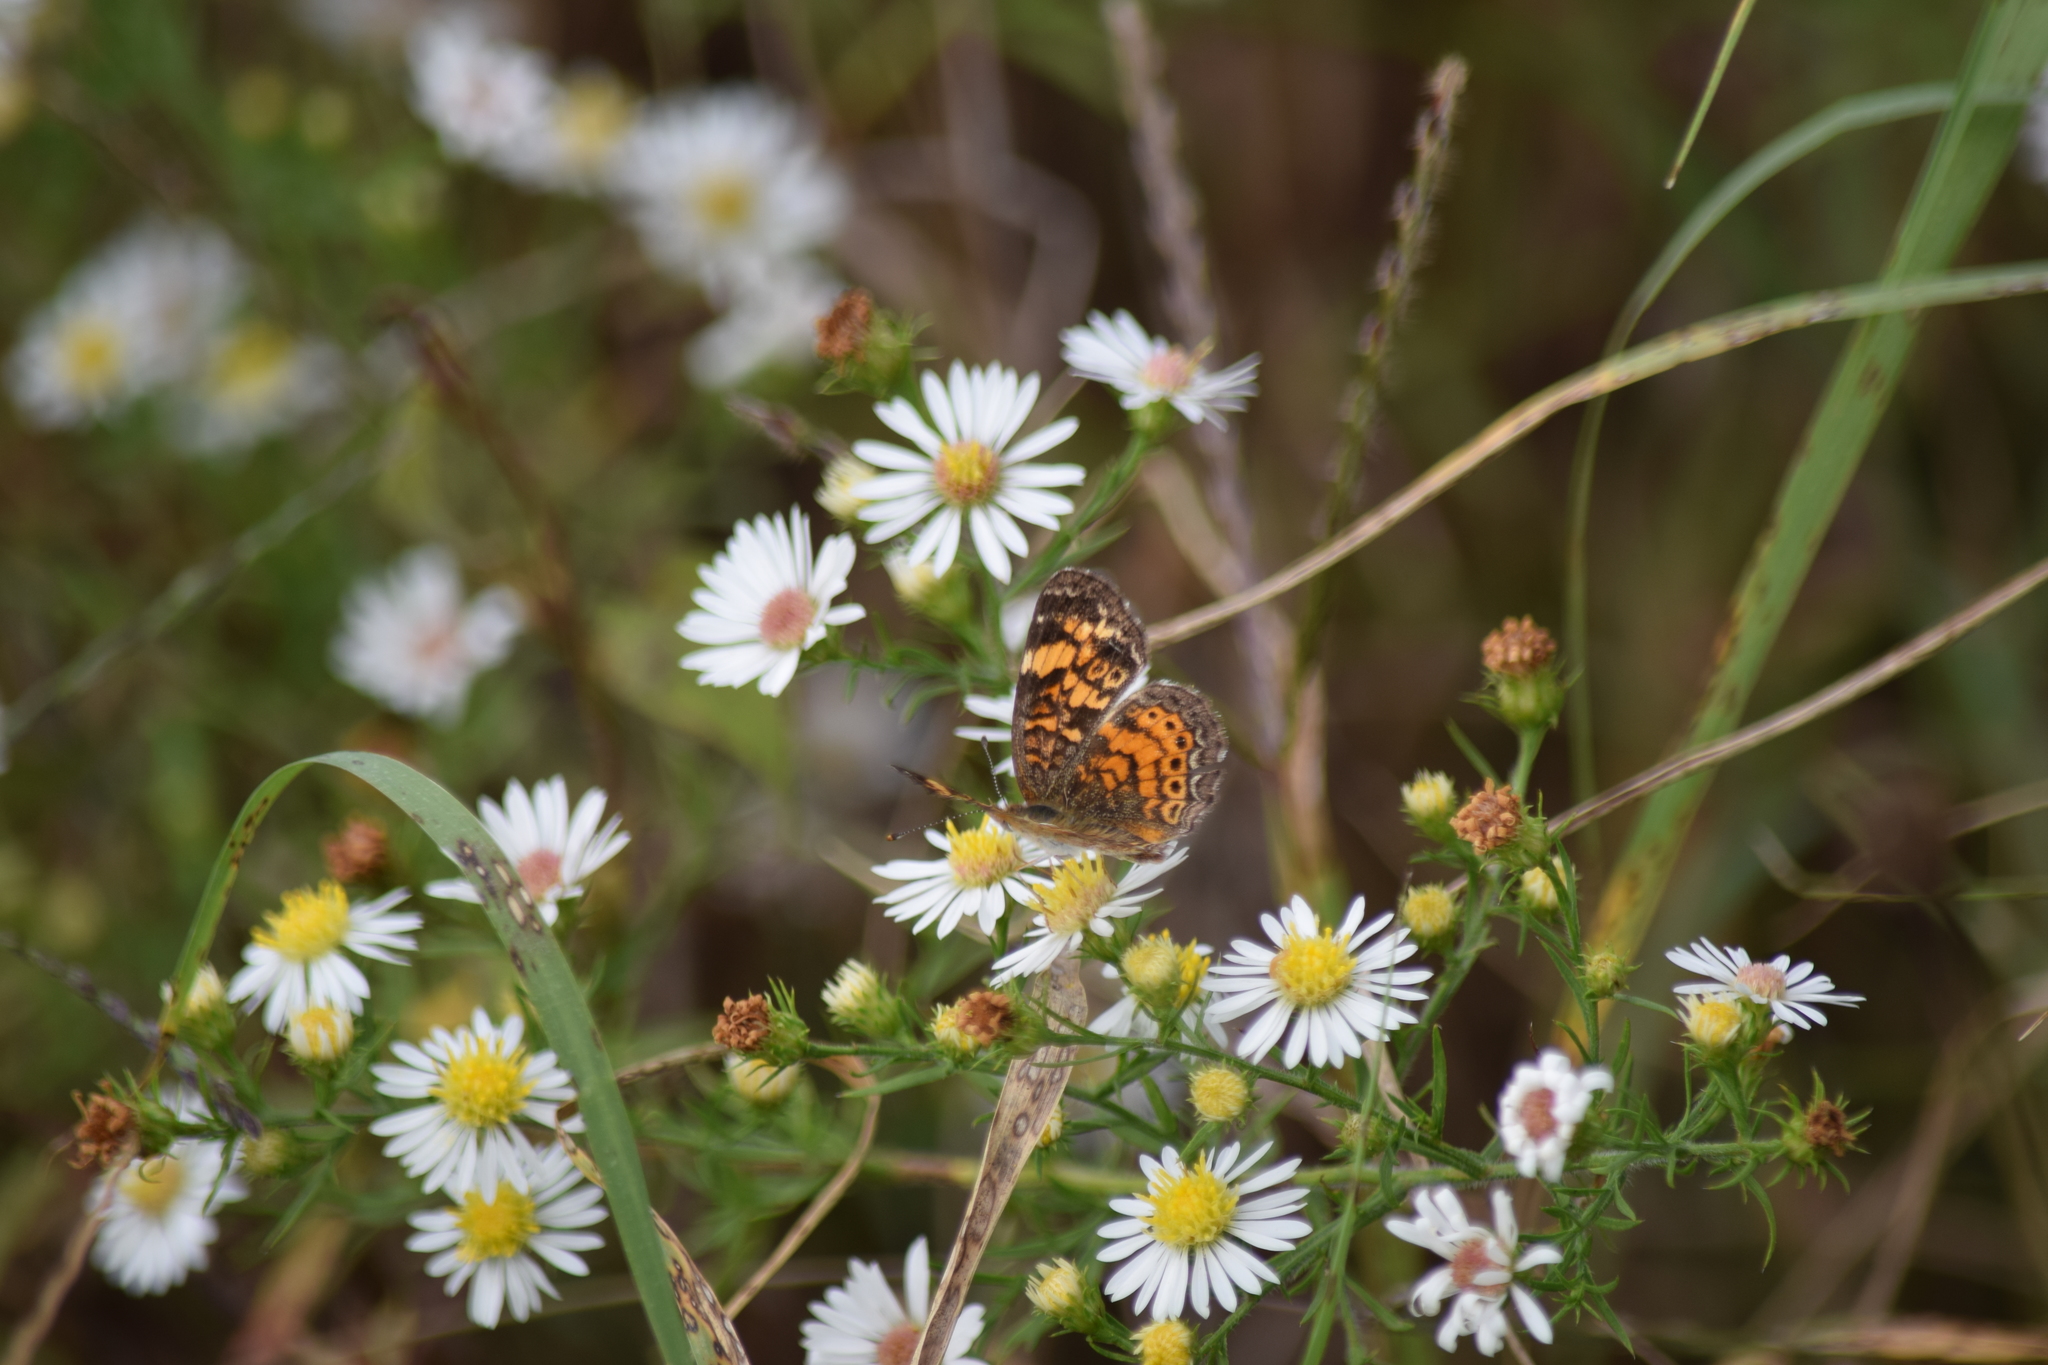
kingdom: Animalia
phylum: Arthropoda
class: Insecta
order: Lepidoptera
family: Nymphalidae
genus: Phyciodes
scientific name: Phyciodes tharos
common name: Pearl crescent
